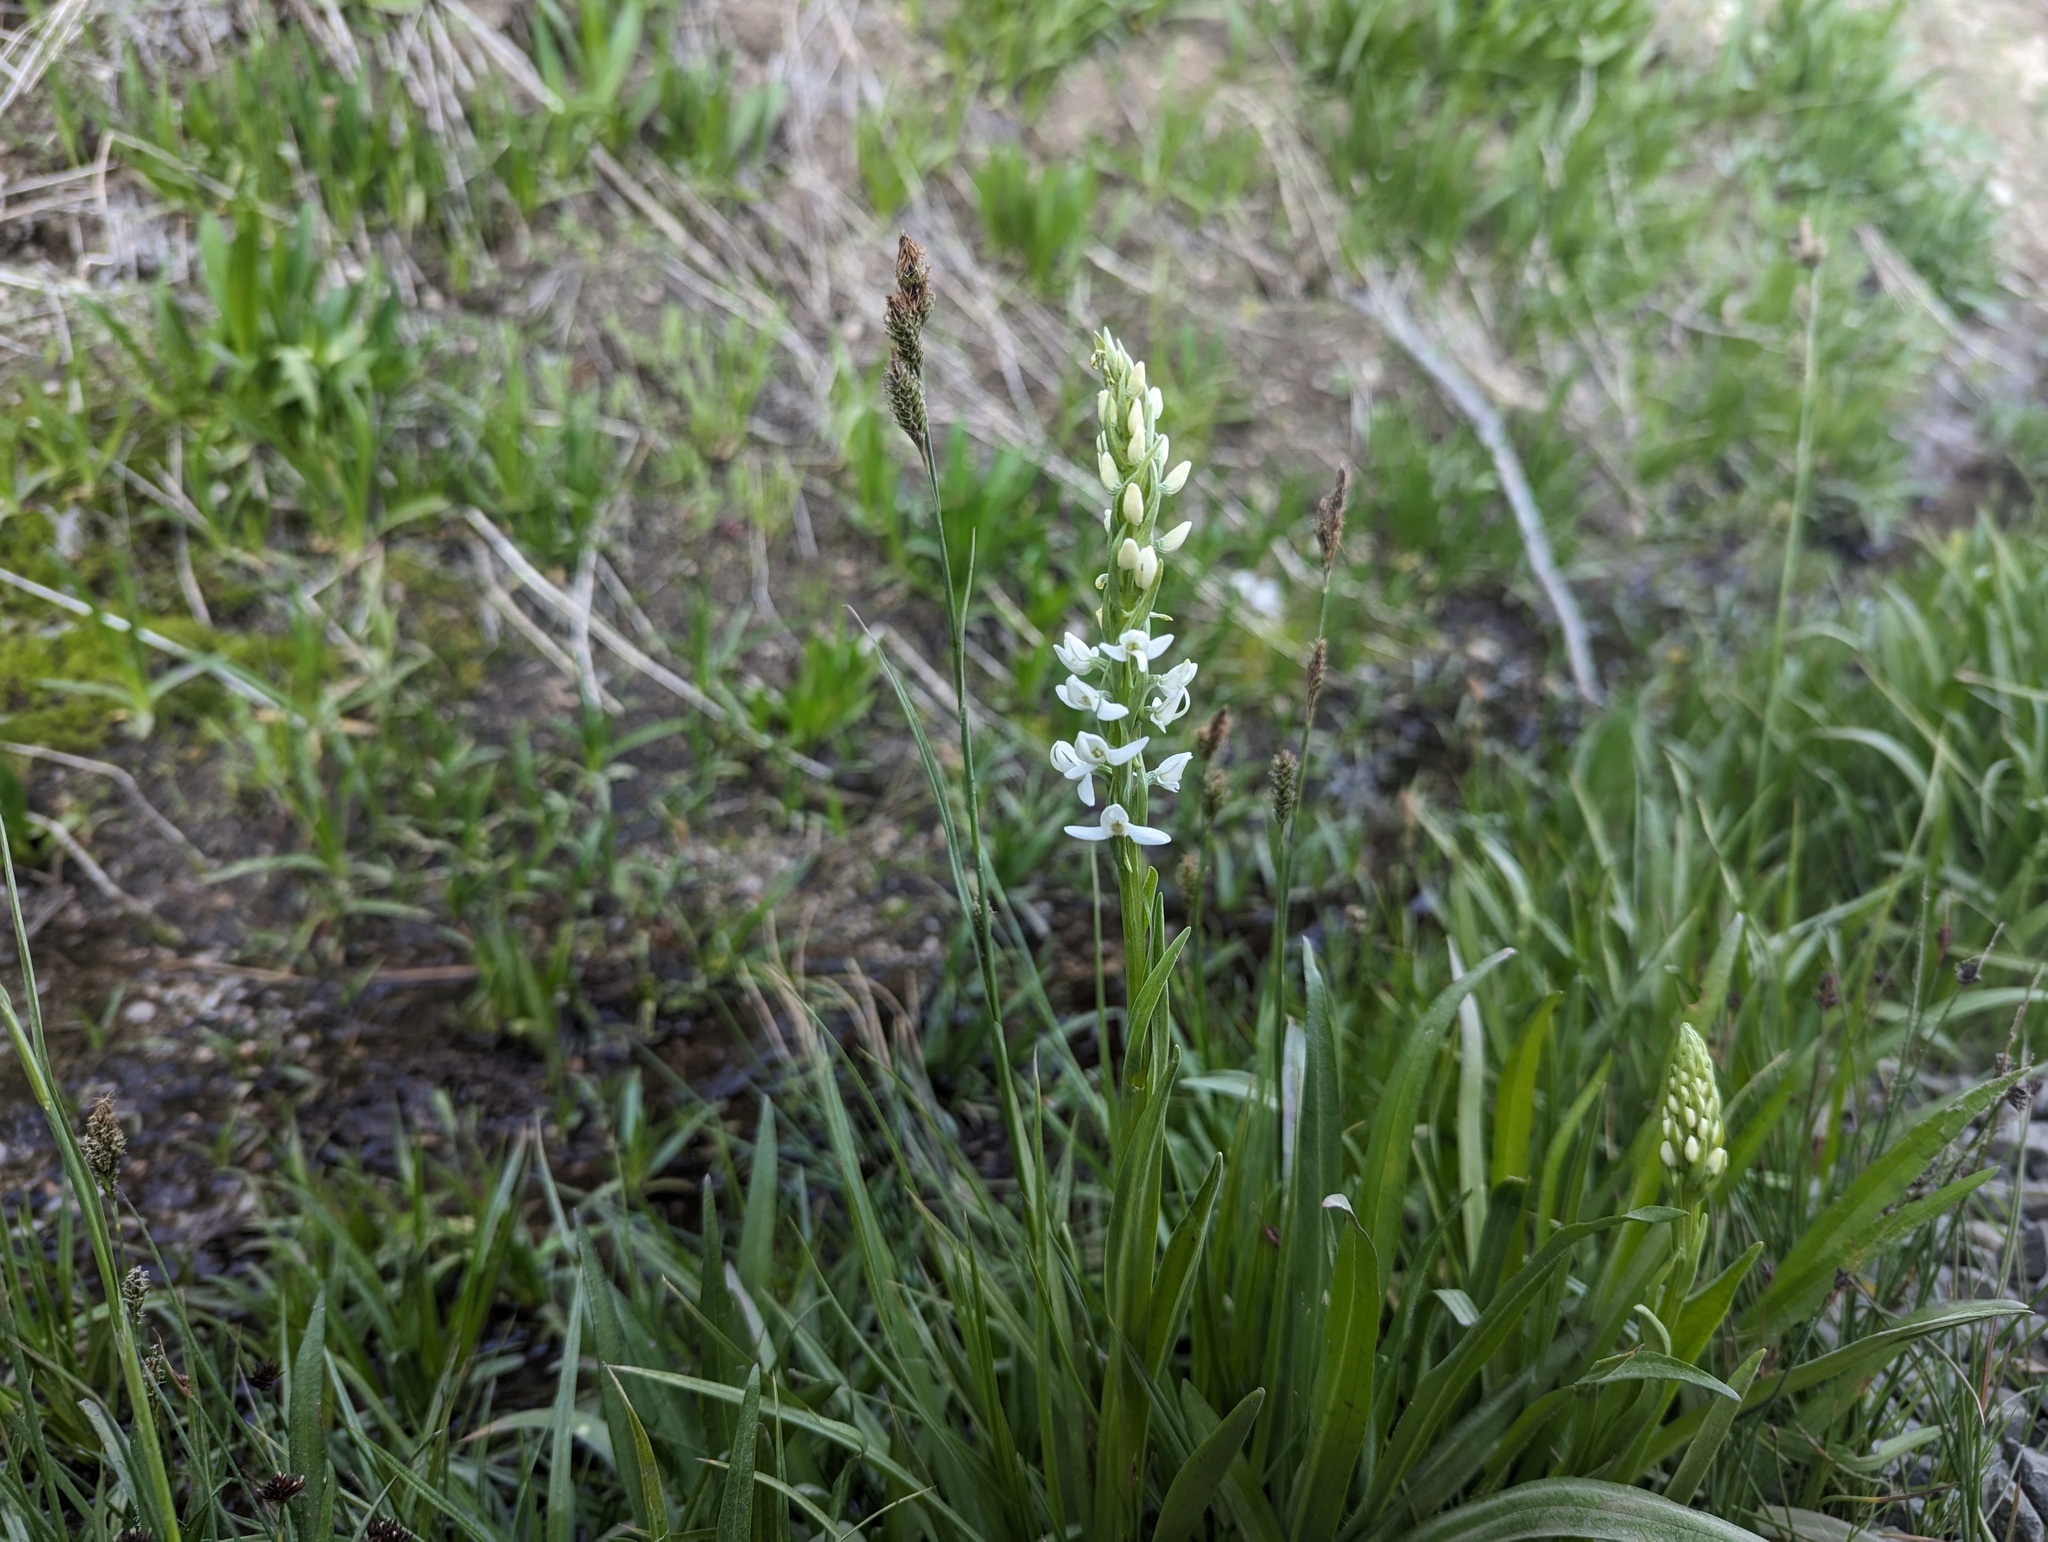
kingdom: Plantae
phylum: Tracheophyta
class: Liliopsida
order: Asparagales
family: Orchidaceae
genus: Platanthera
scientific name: Platanthera dilatata
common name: Bog candles
